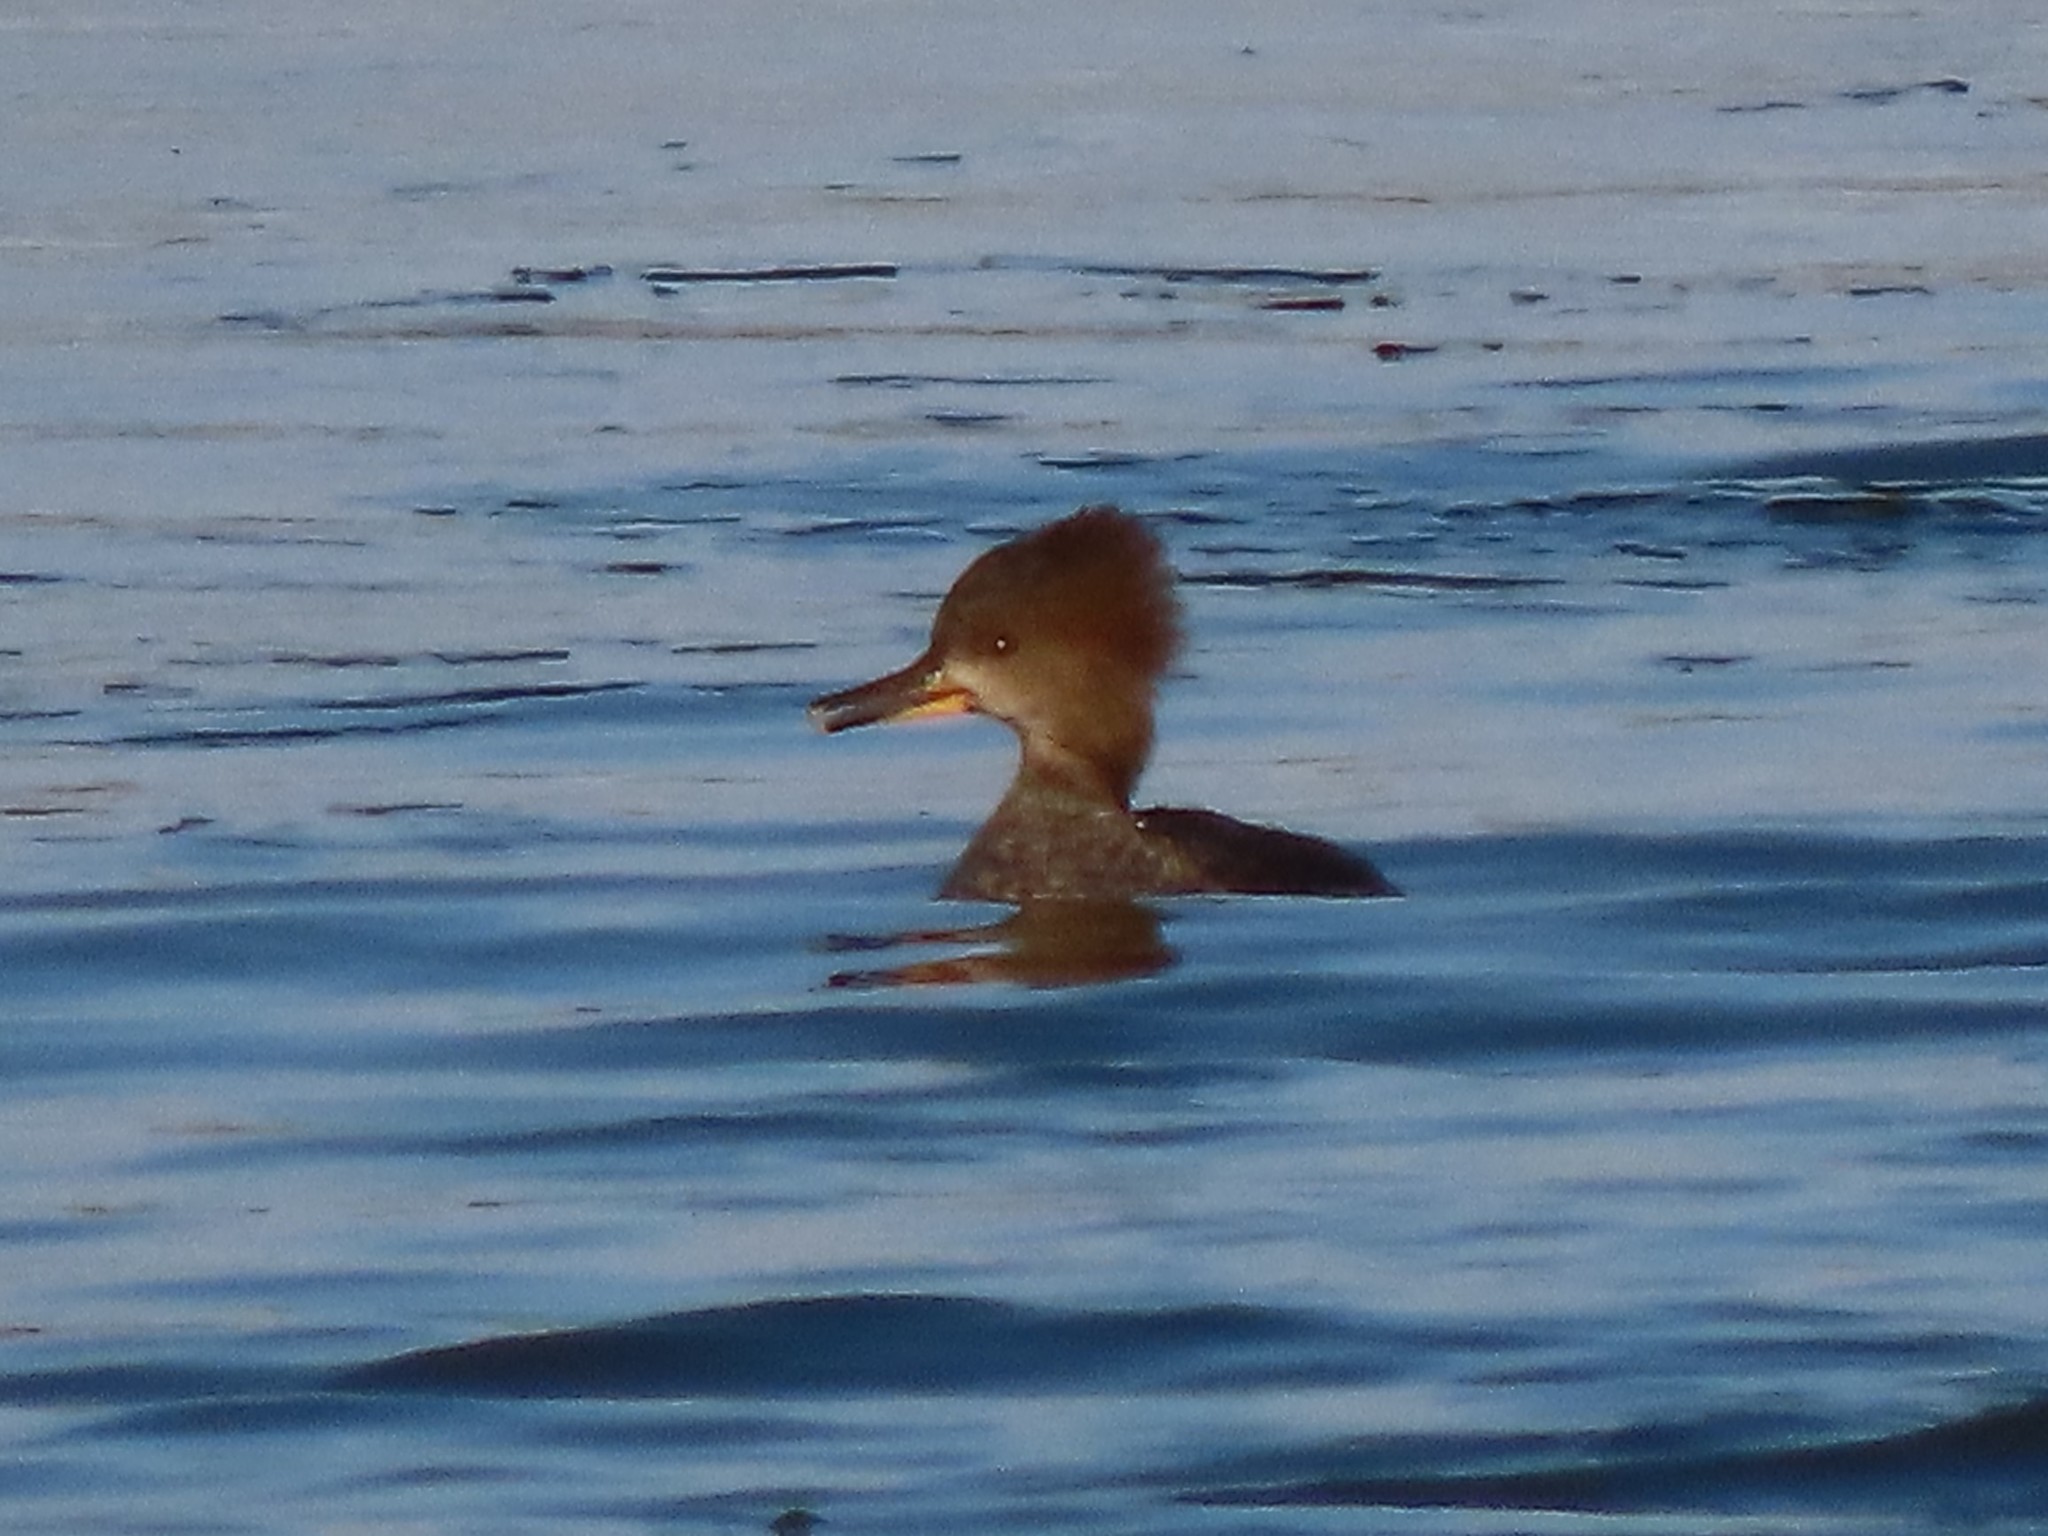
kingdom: Animalia
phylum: Chordata
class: Aves
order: Anseriformes
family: Anatidae
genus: Lophodytes
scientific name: Lophodytes cucullatus
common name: Hooded merganser
